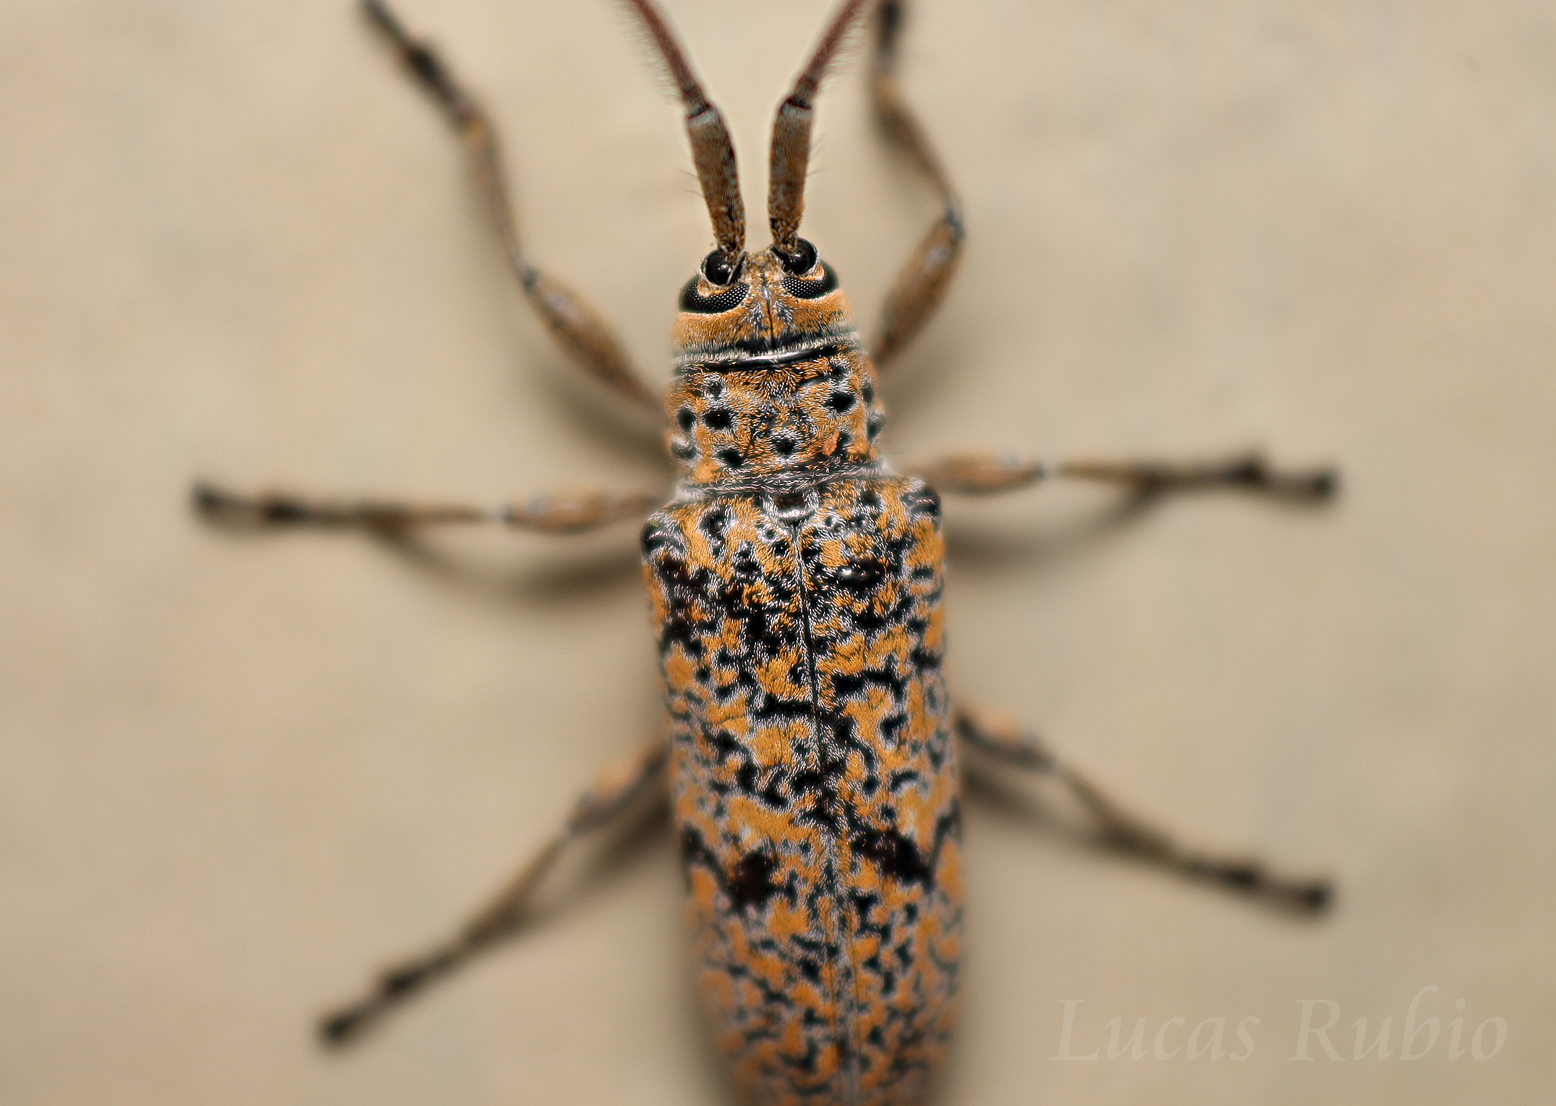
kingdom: Animalia
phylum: Arthropoda
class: Insecta
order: Coleoptera
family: Cerambycidae
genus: Peritrox
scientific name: Peritrox nigromaculatus
